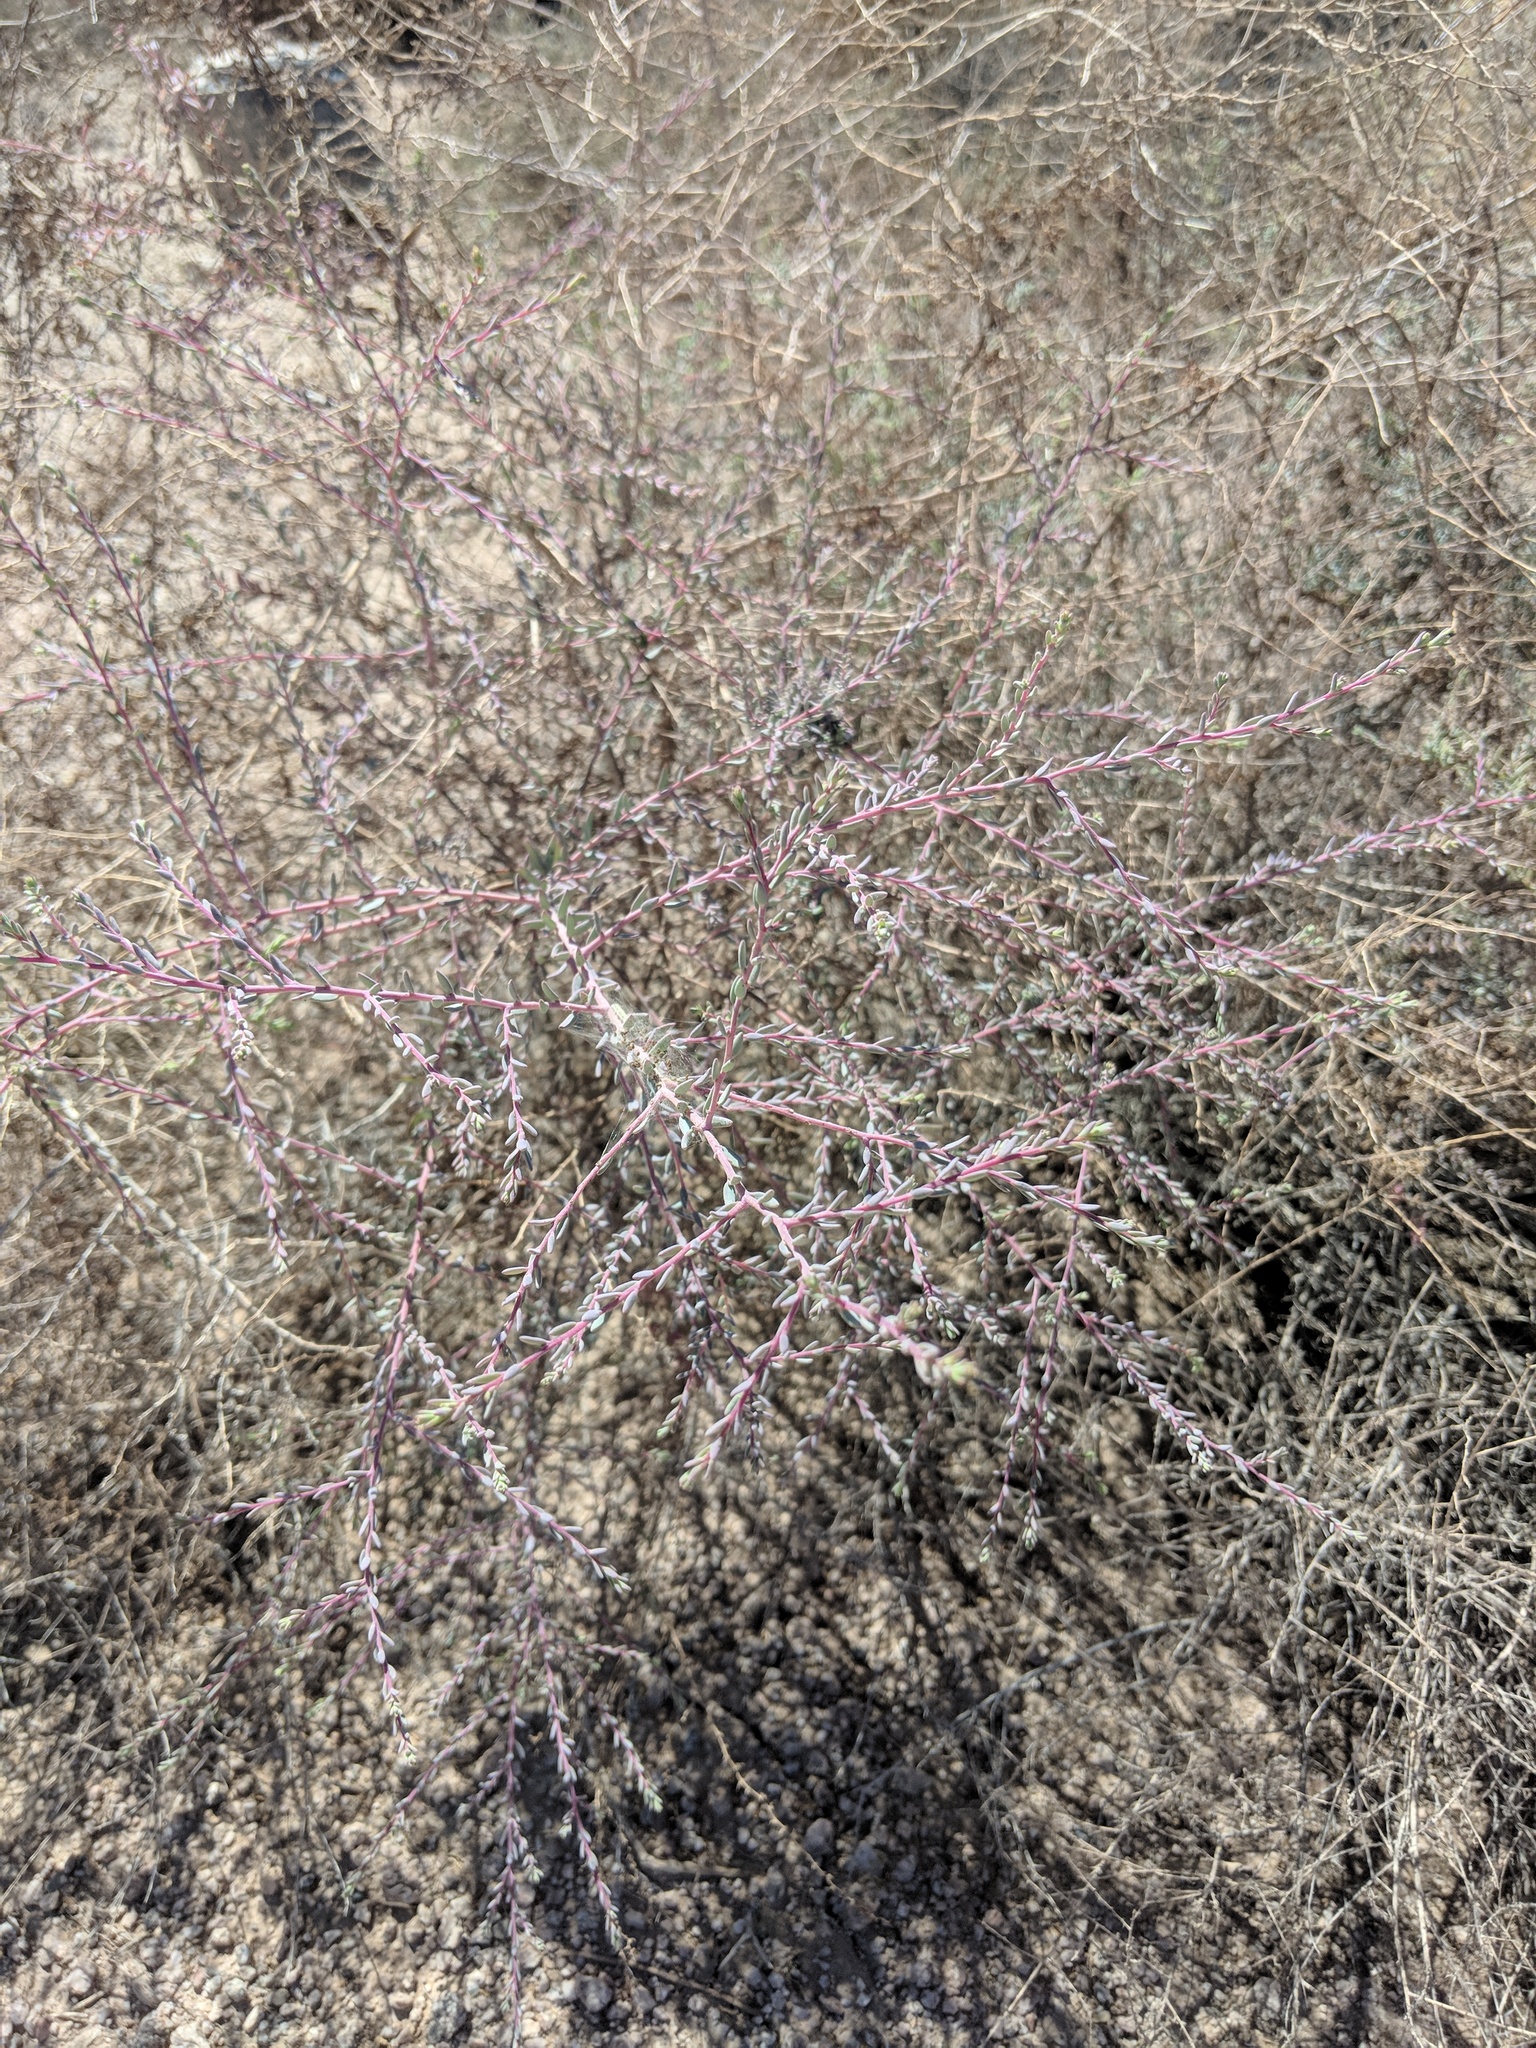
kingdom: Plantae
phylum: Tracheophyta
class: Magnoliopsida
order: Caryophyllales
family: Amaranthaceae
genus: Suaeda
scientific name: Suaeda nigra
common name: Bush seepweed
